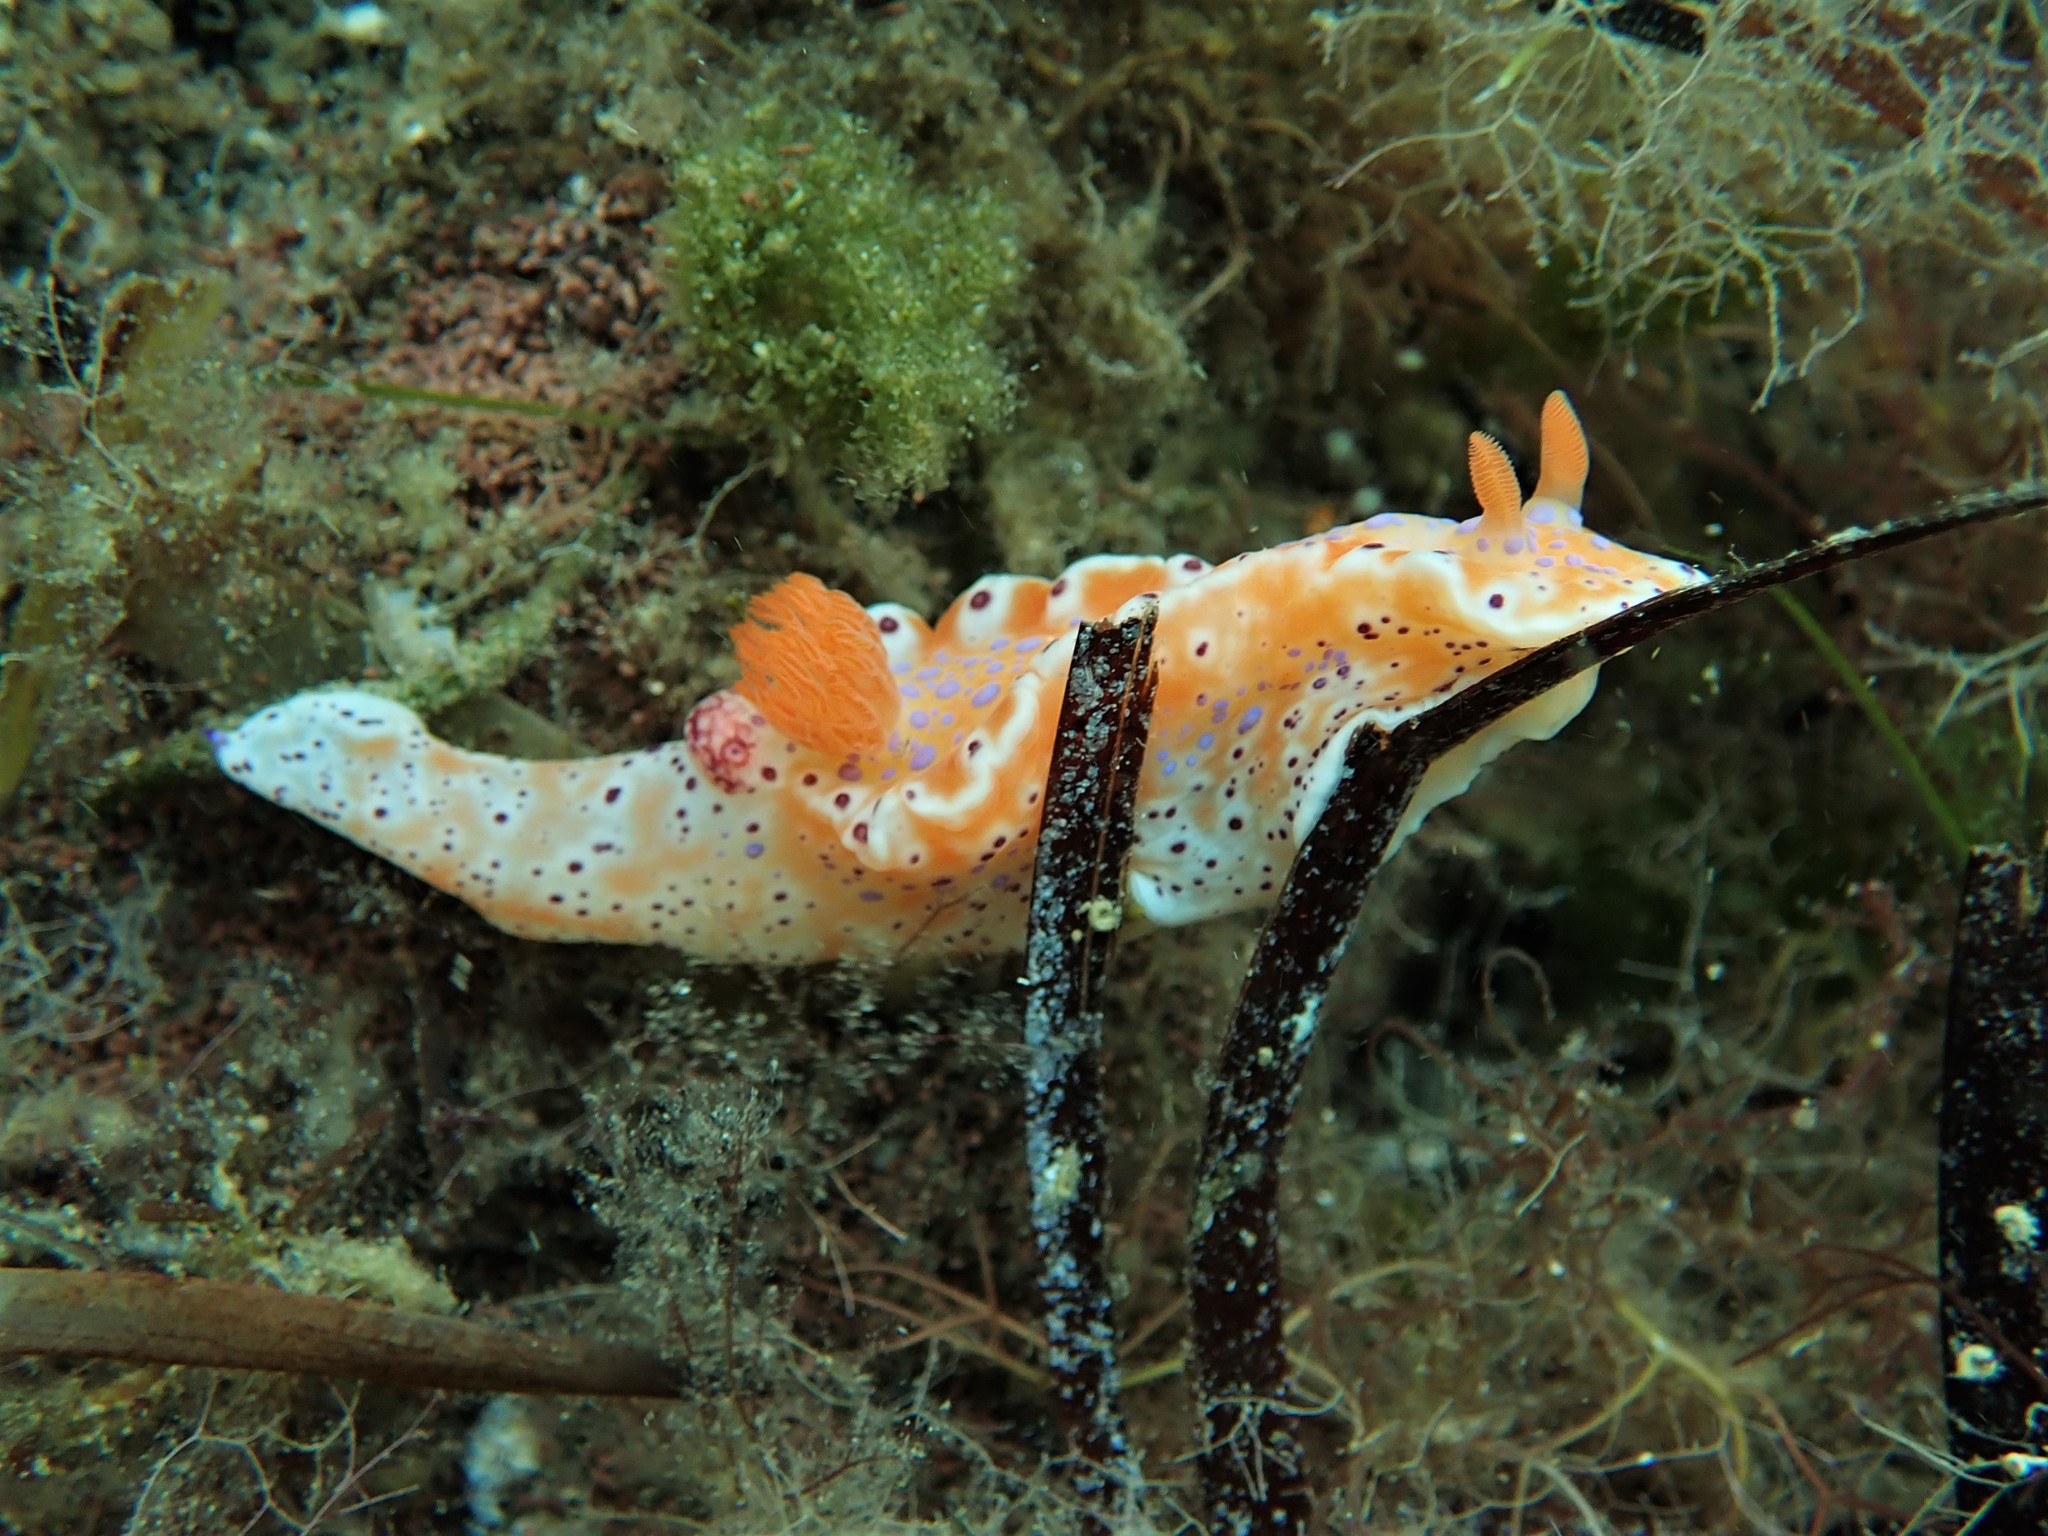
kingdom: Animalia
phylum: Mollusca
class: Gastropoda
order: Nudibranchia
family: Chromodorididae
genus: Ceratosoma
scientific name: Ceratosoma brevicaudatum
